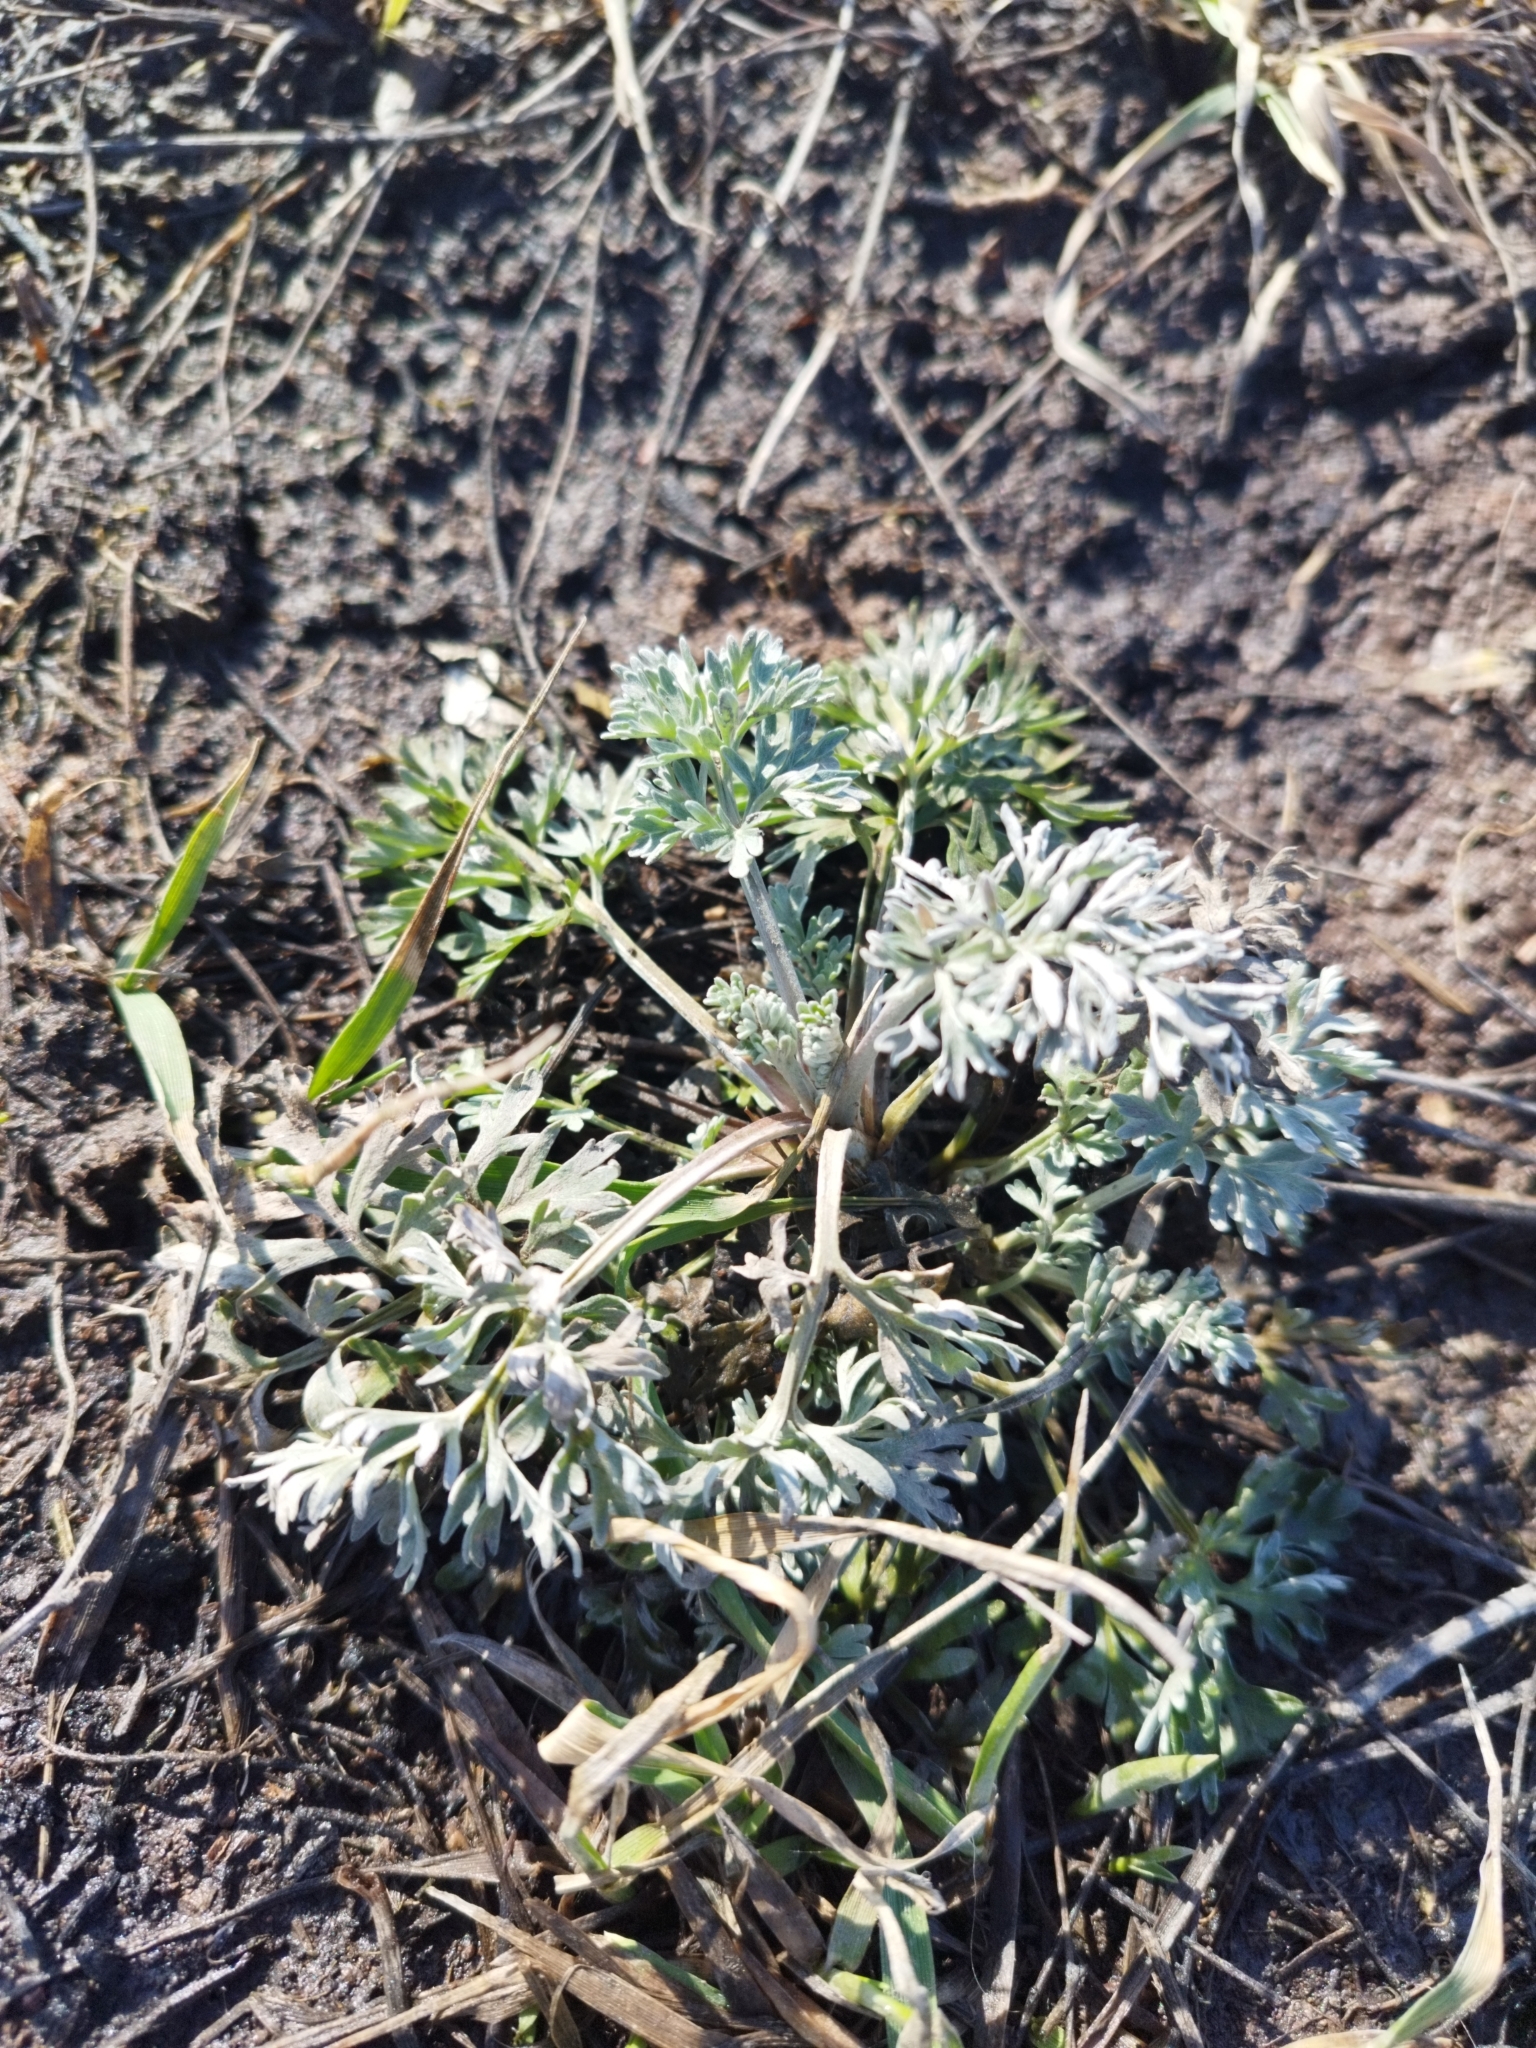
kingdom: Plantae
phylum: Tracheophyta
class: Magnoliopsida
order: Asterales
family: Asteraceae
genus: Artemisia
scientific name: Artemisia absinthium
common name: Wormwood
